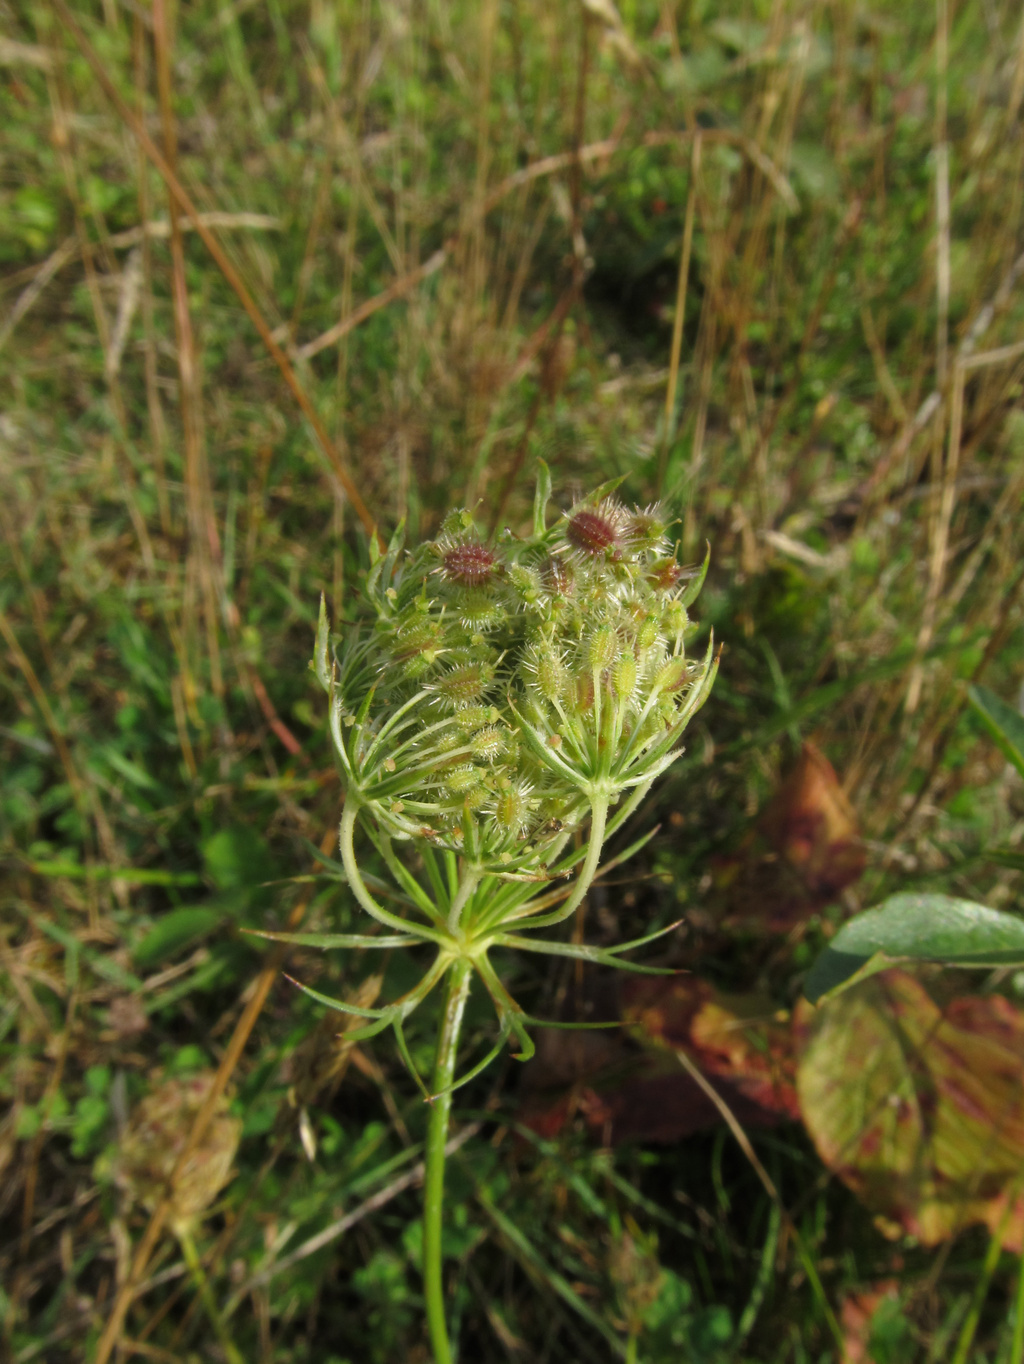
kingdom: Animalia
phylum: Arthropoda
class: Insecta
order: Diptera
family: Cecidomyiidae
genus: Kiefferia
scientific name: Kiefferia pericarpiicola
